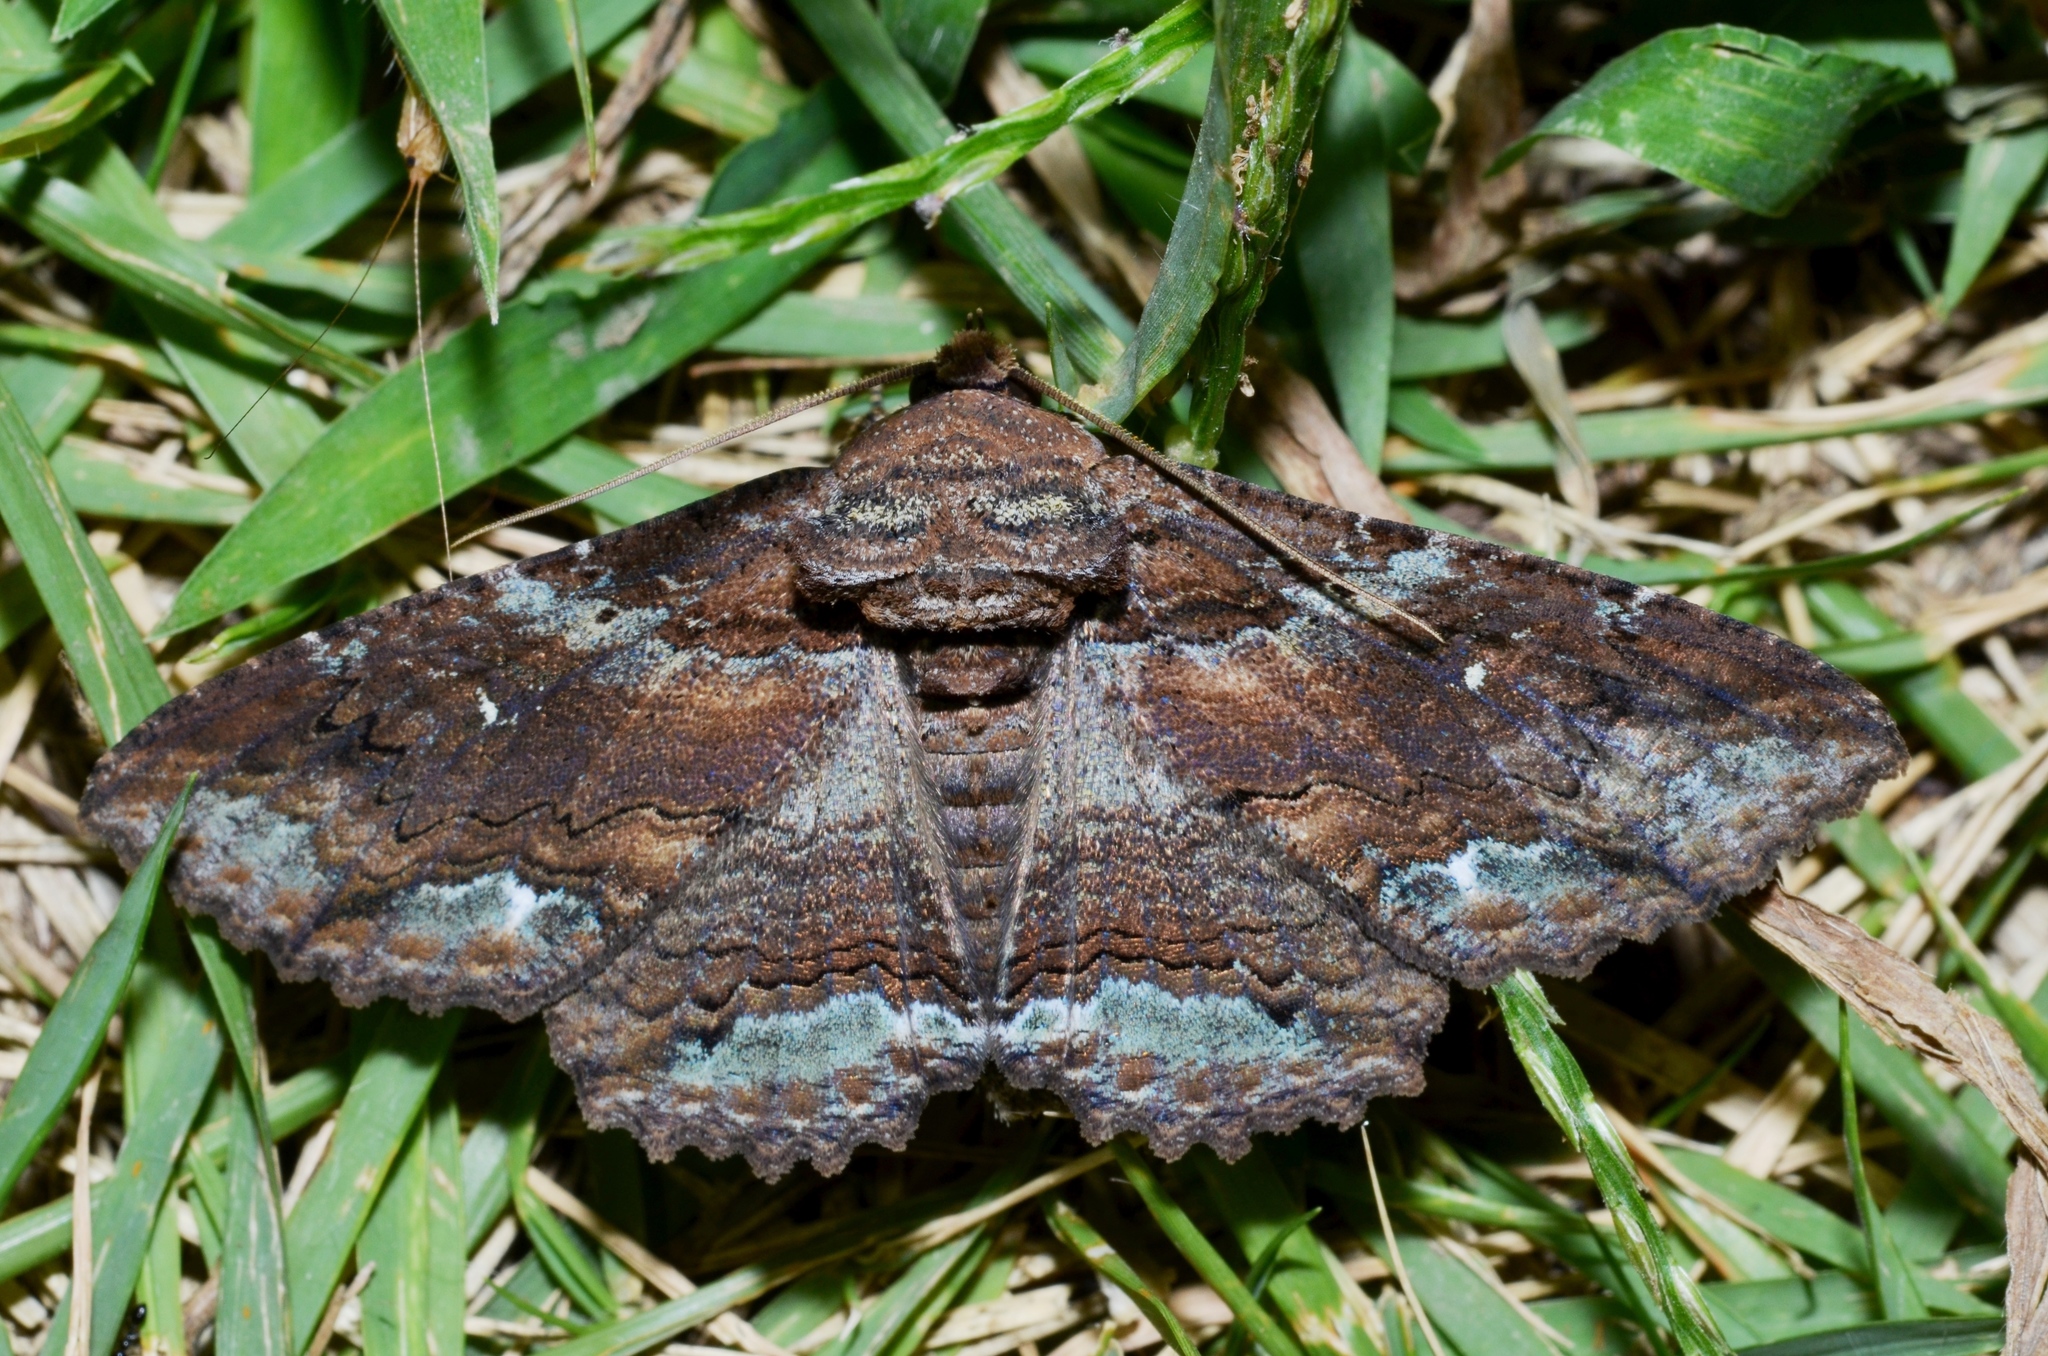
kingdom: Animalia
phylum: Arthropoda
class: Insecta
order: Lepidoptera
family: Erebidae
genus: Zale
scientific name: Zale lunata
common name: Lunate zale moth
